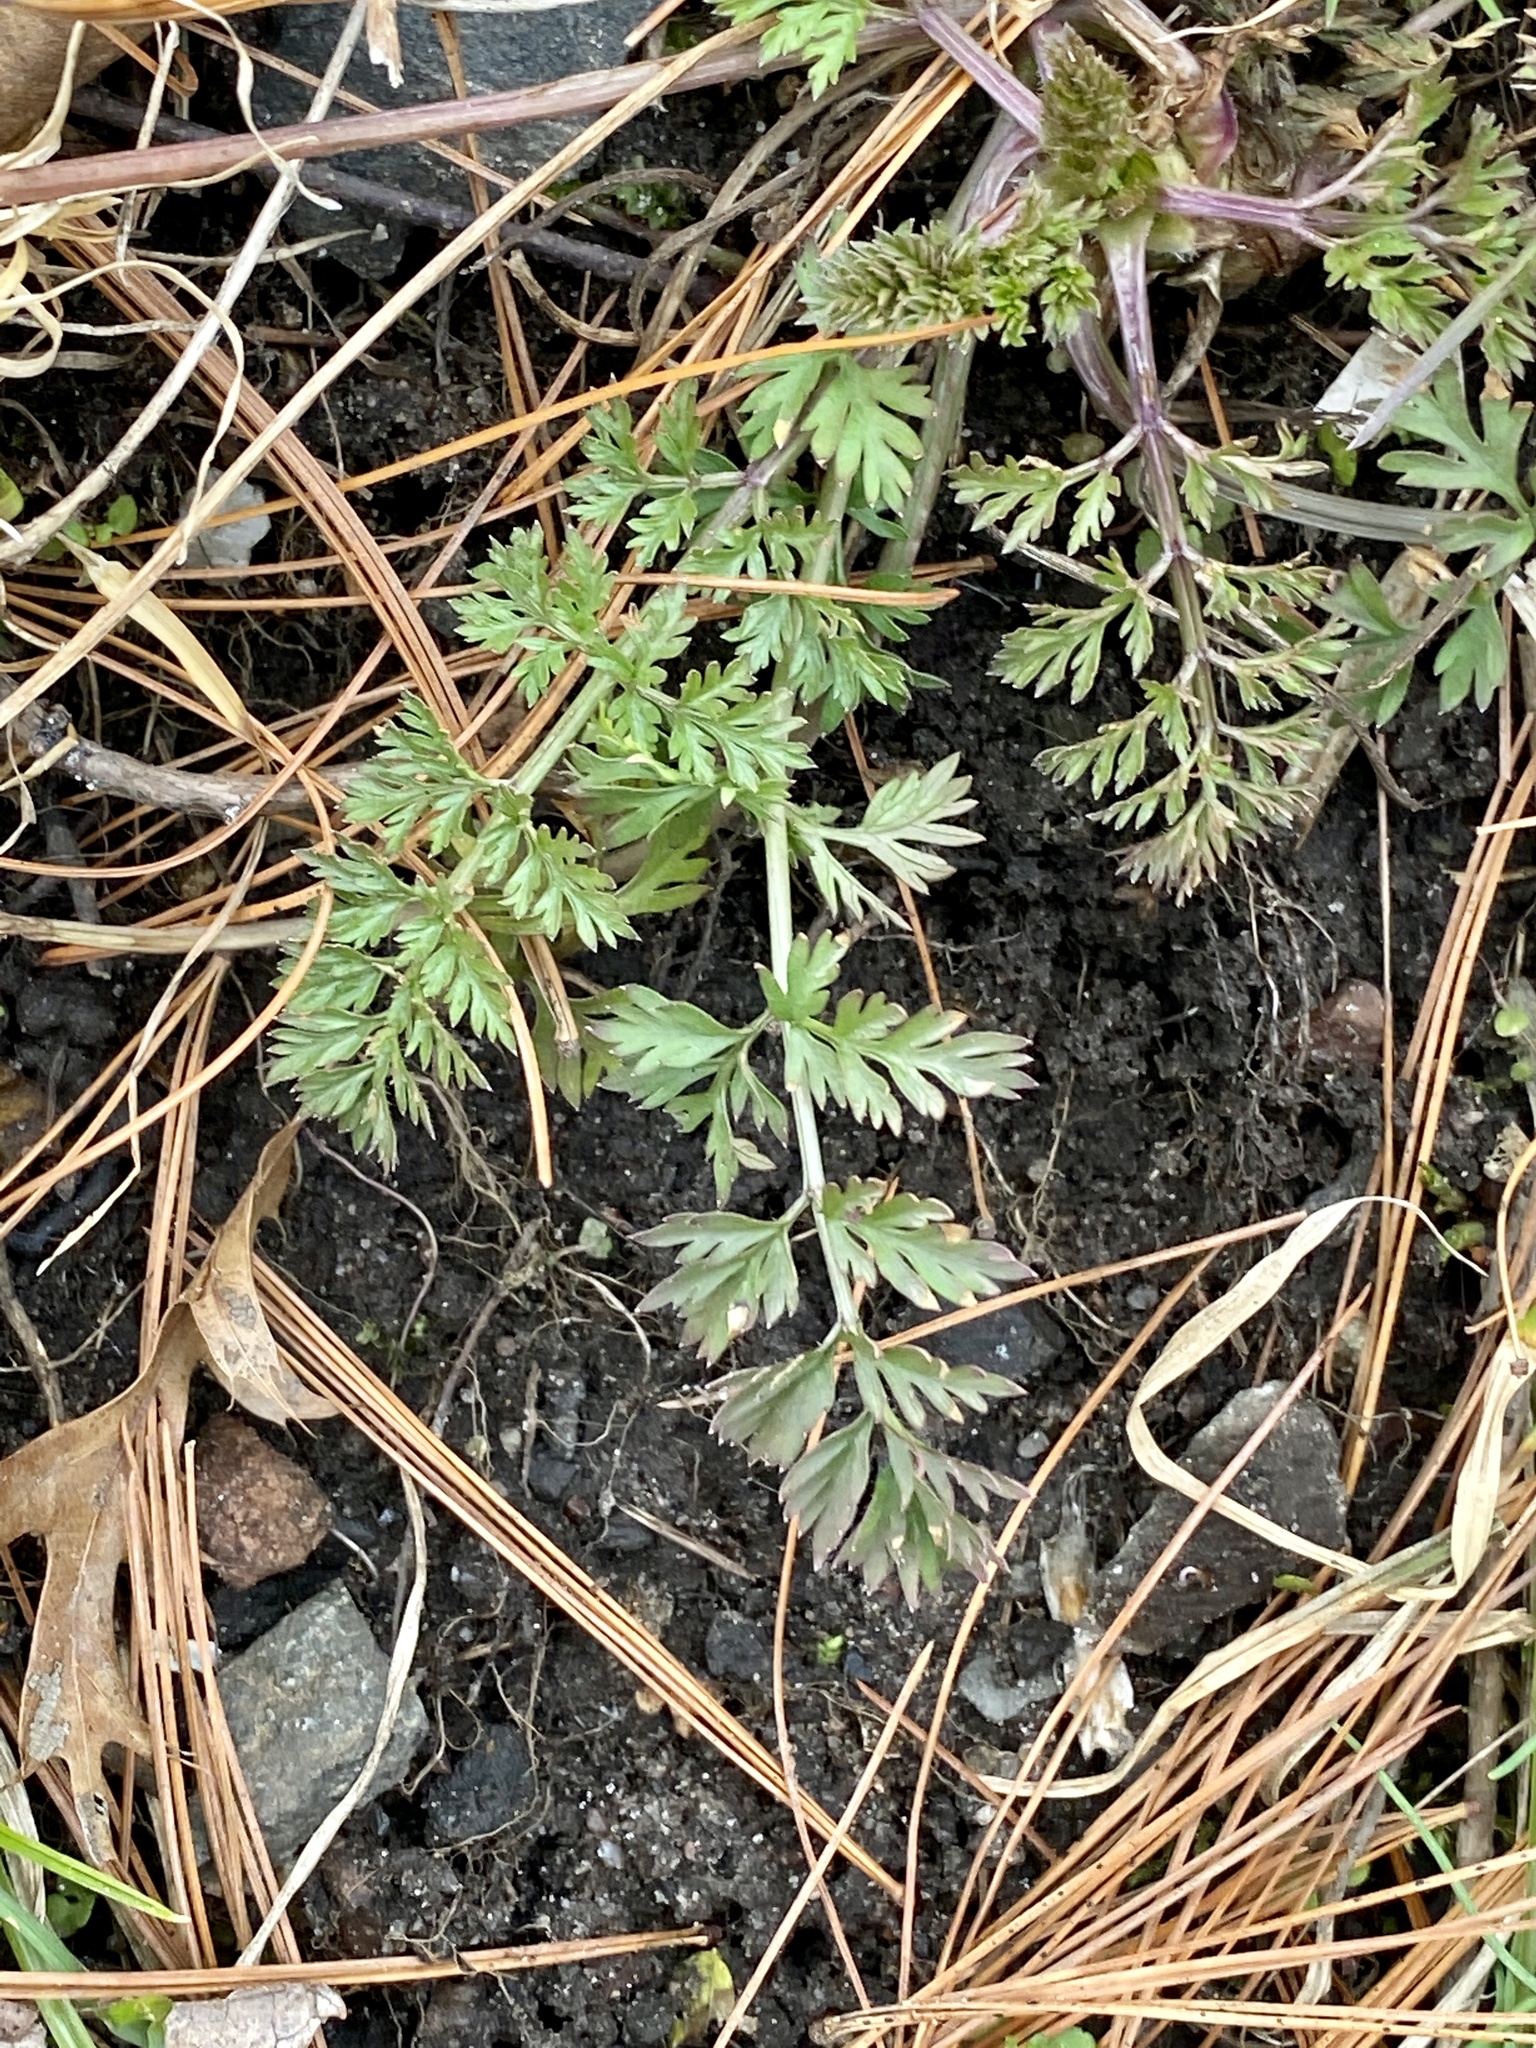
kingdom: Plantae
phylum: Tracheophyta
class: Magnoliopsida
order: Apiales
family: Apiaceae
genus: Daucus
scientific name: Daucus carota
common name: Wild carrot
